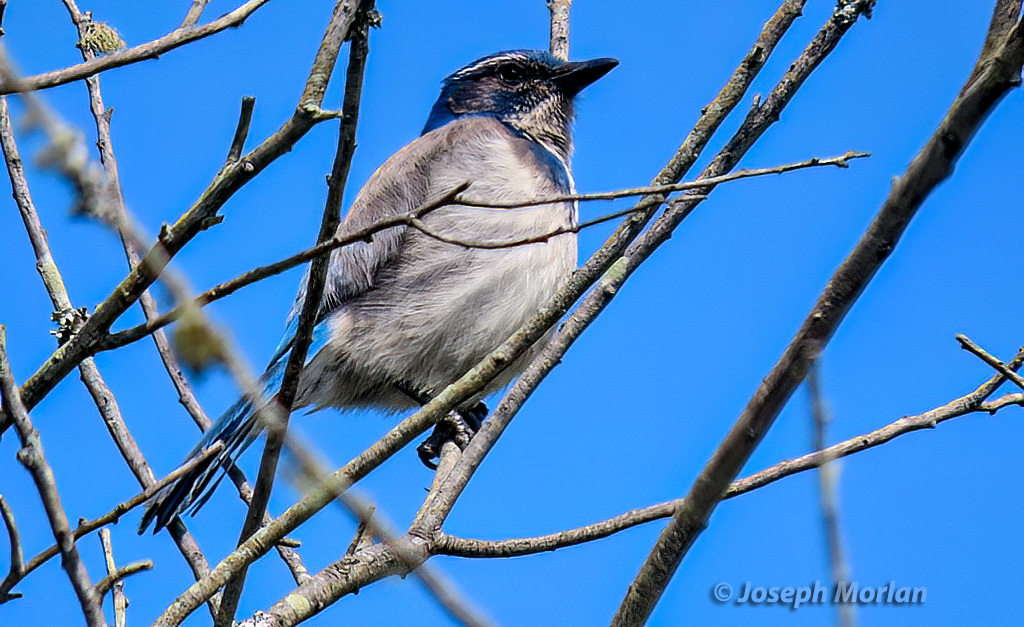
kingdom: Animalia
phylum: Chordata
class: Aves
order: Passeriformes
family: Corvidae
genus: Aphelocoma
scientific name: Aphelocoma californica
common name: California scrub-jay
